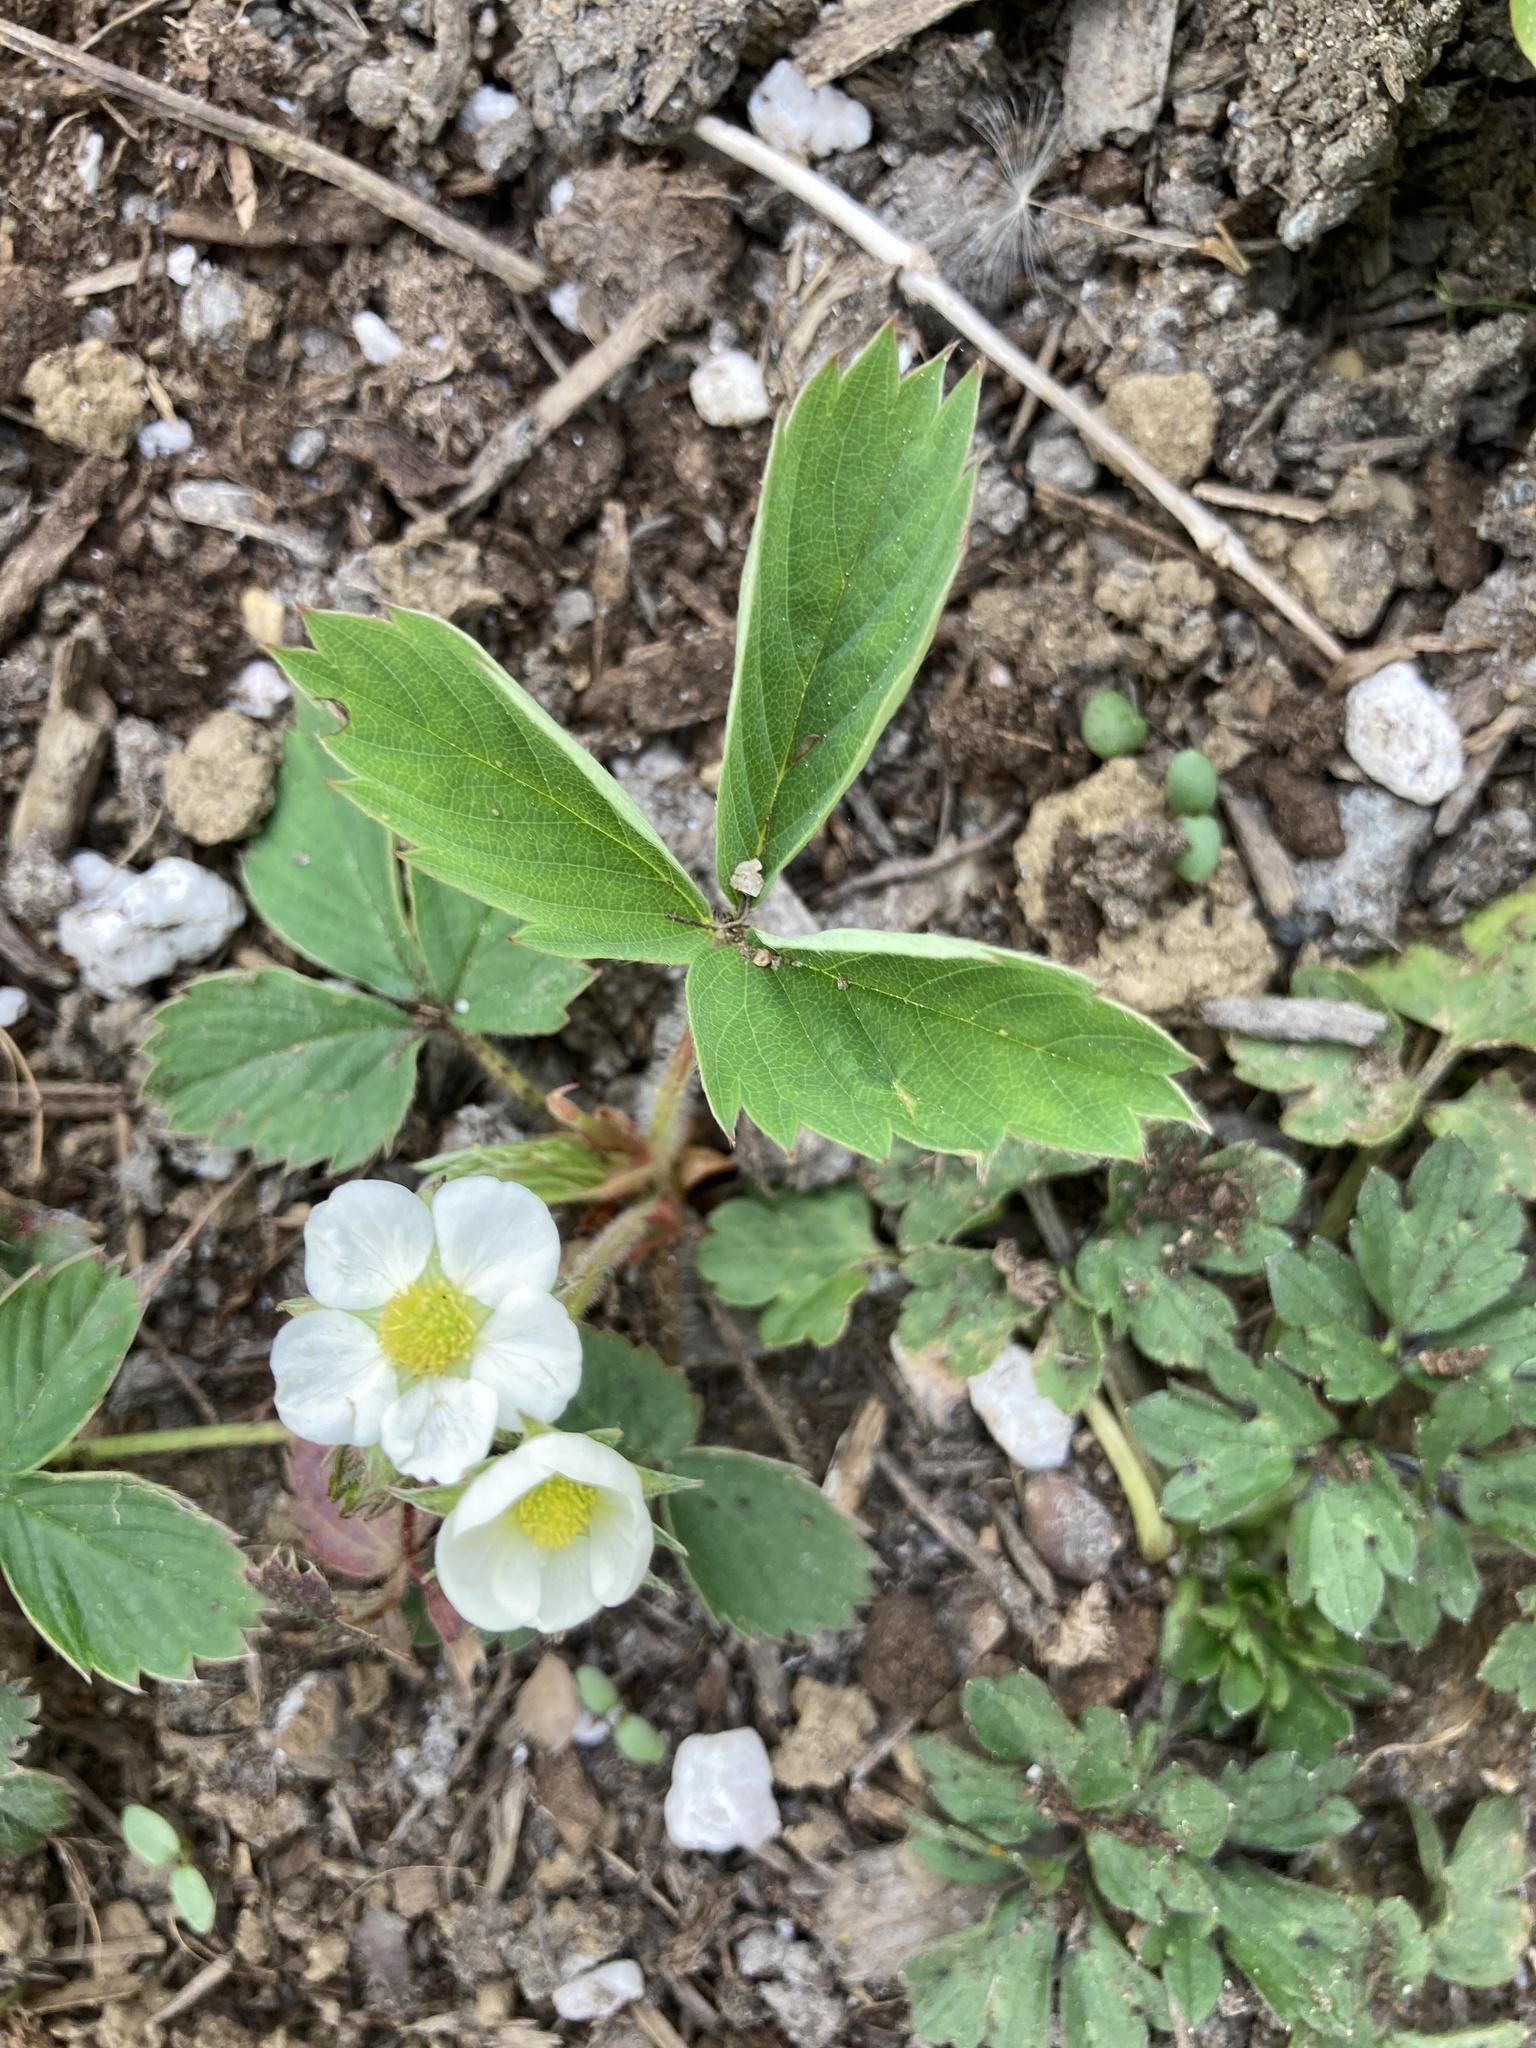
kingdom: Plantae
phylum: Tracheophyta
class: Magnoliopsida
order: Rosales
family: Rosaceae
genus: Fragaria
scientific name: Fragaria virginiana
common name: Thickleaved wild strawberry
